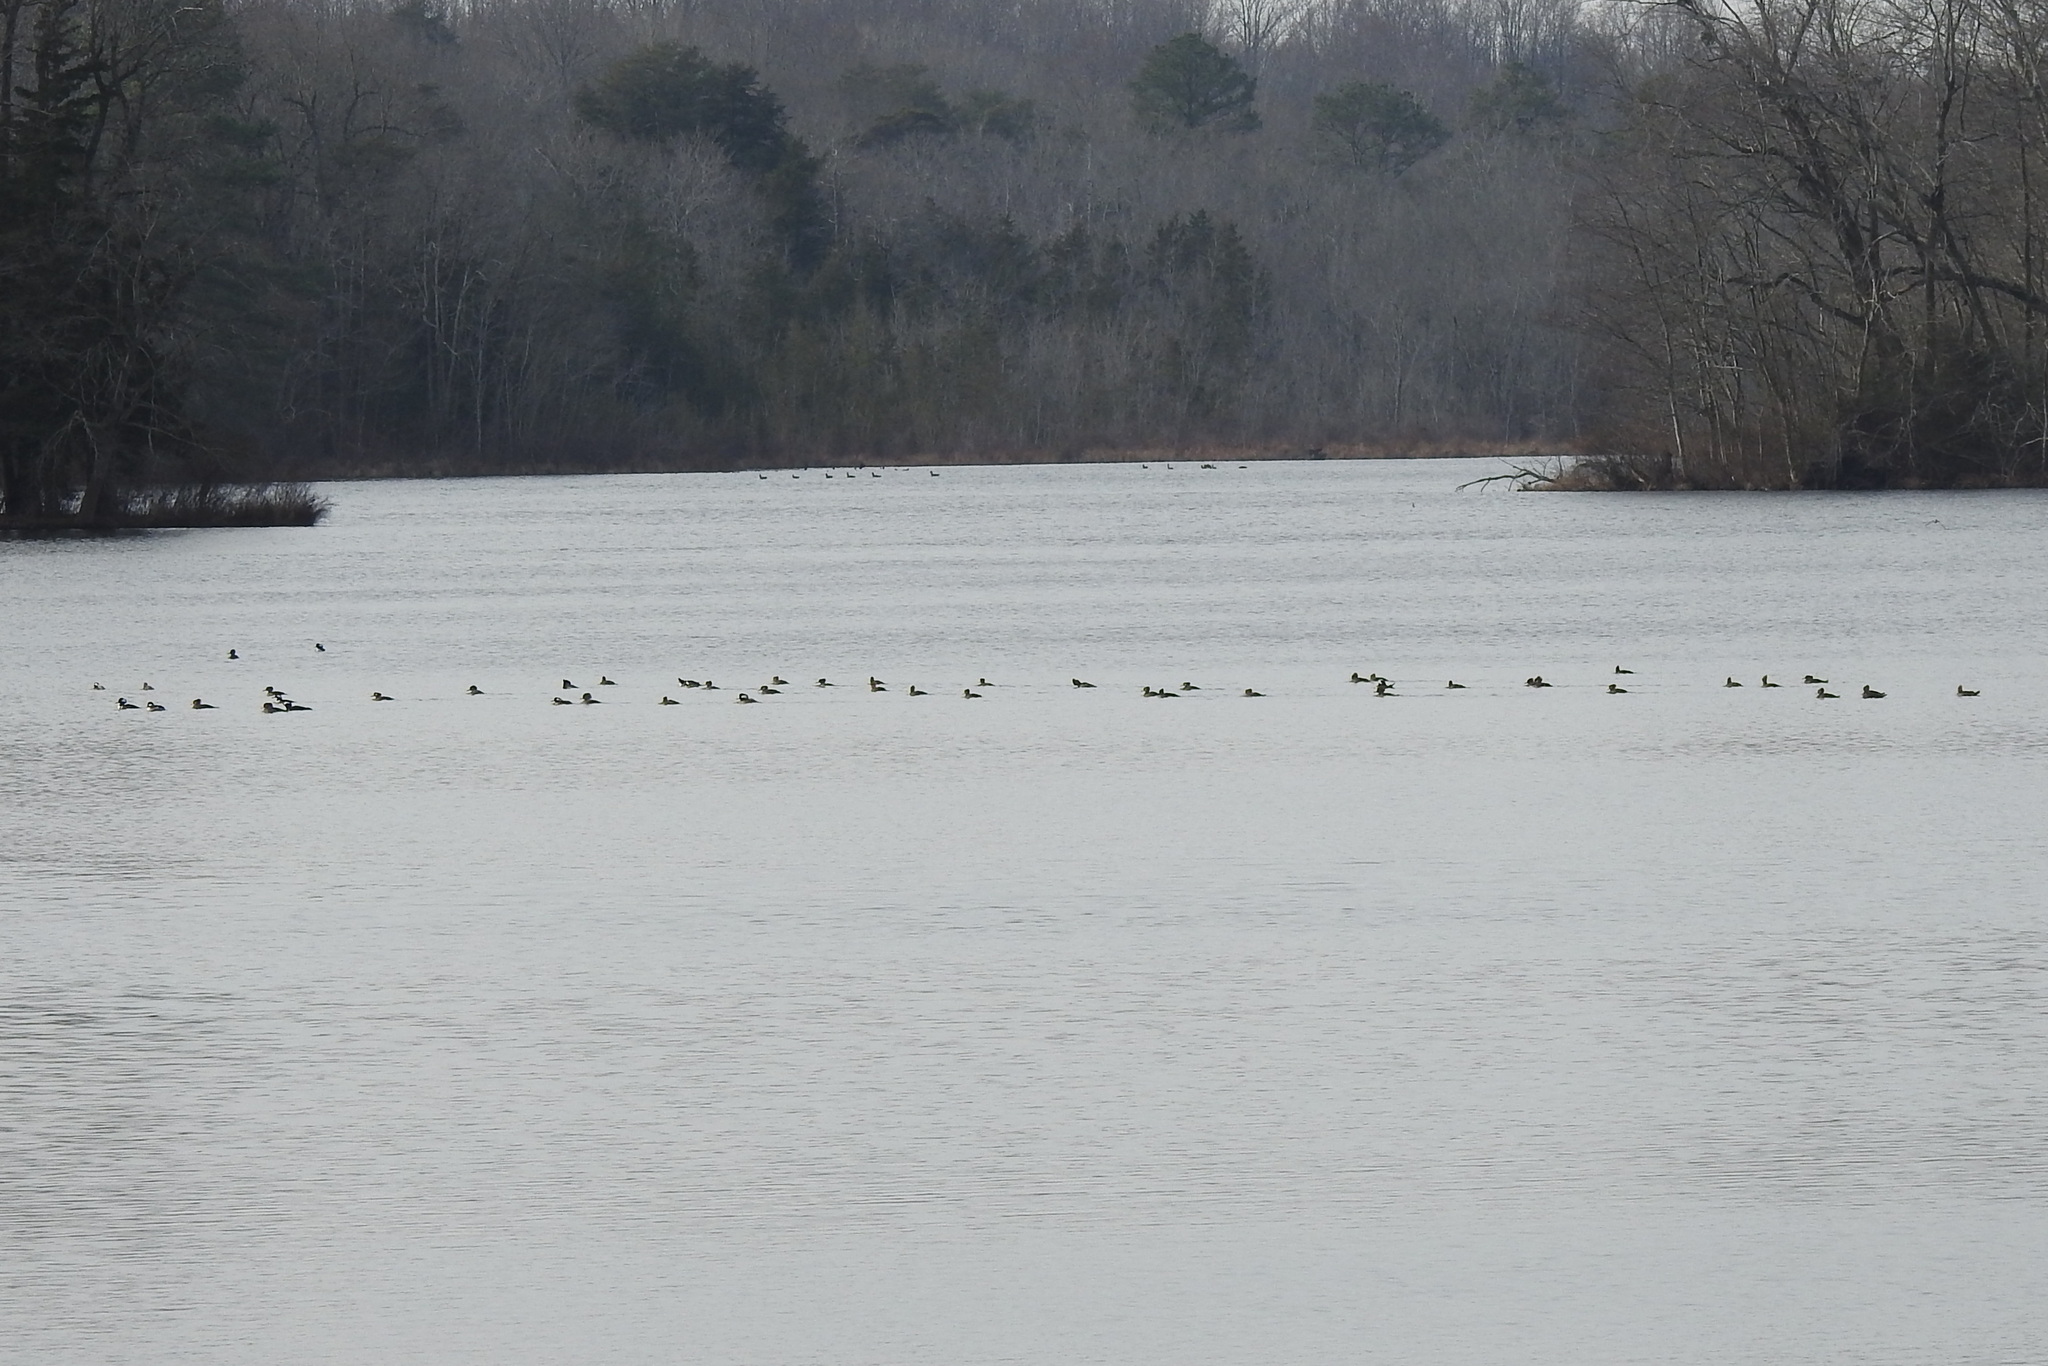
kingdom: Animalia
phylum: Chordata
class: Aves
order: Anseriformes
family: Anatidae
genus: Lophodytes
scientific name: Lophodytes cucullatus
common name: Hooded merganser
